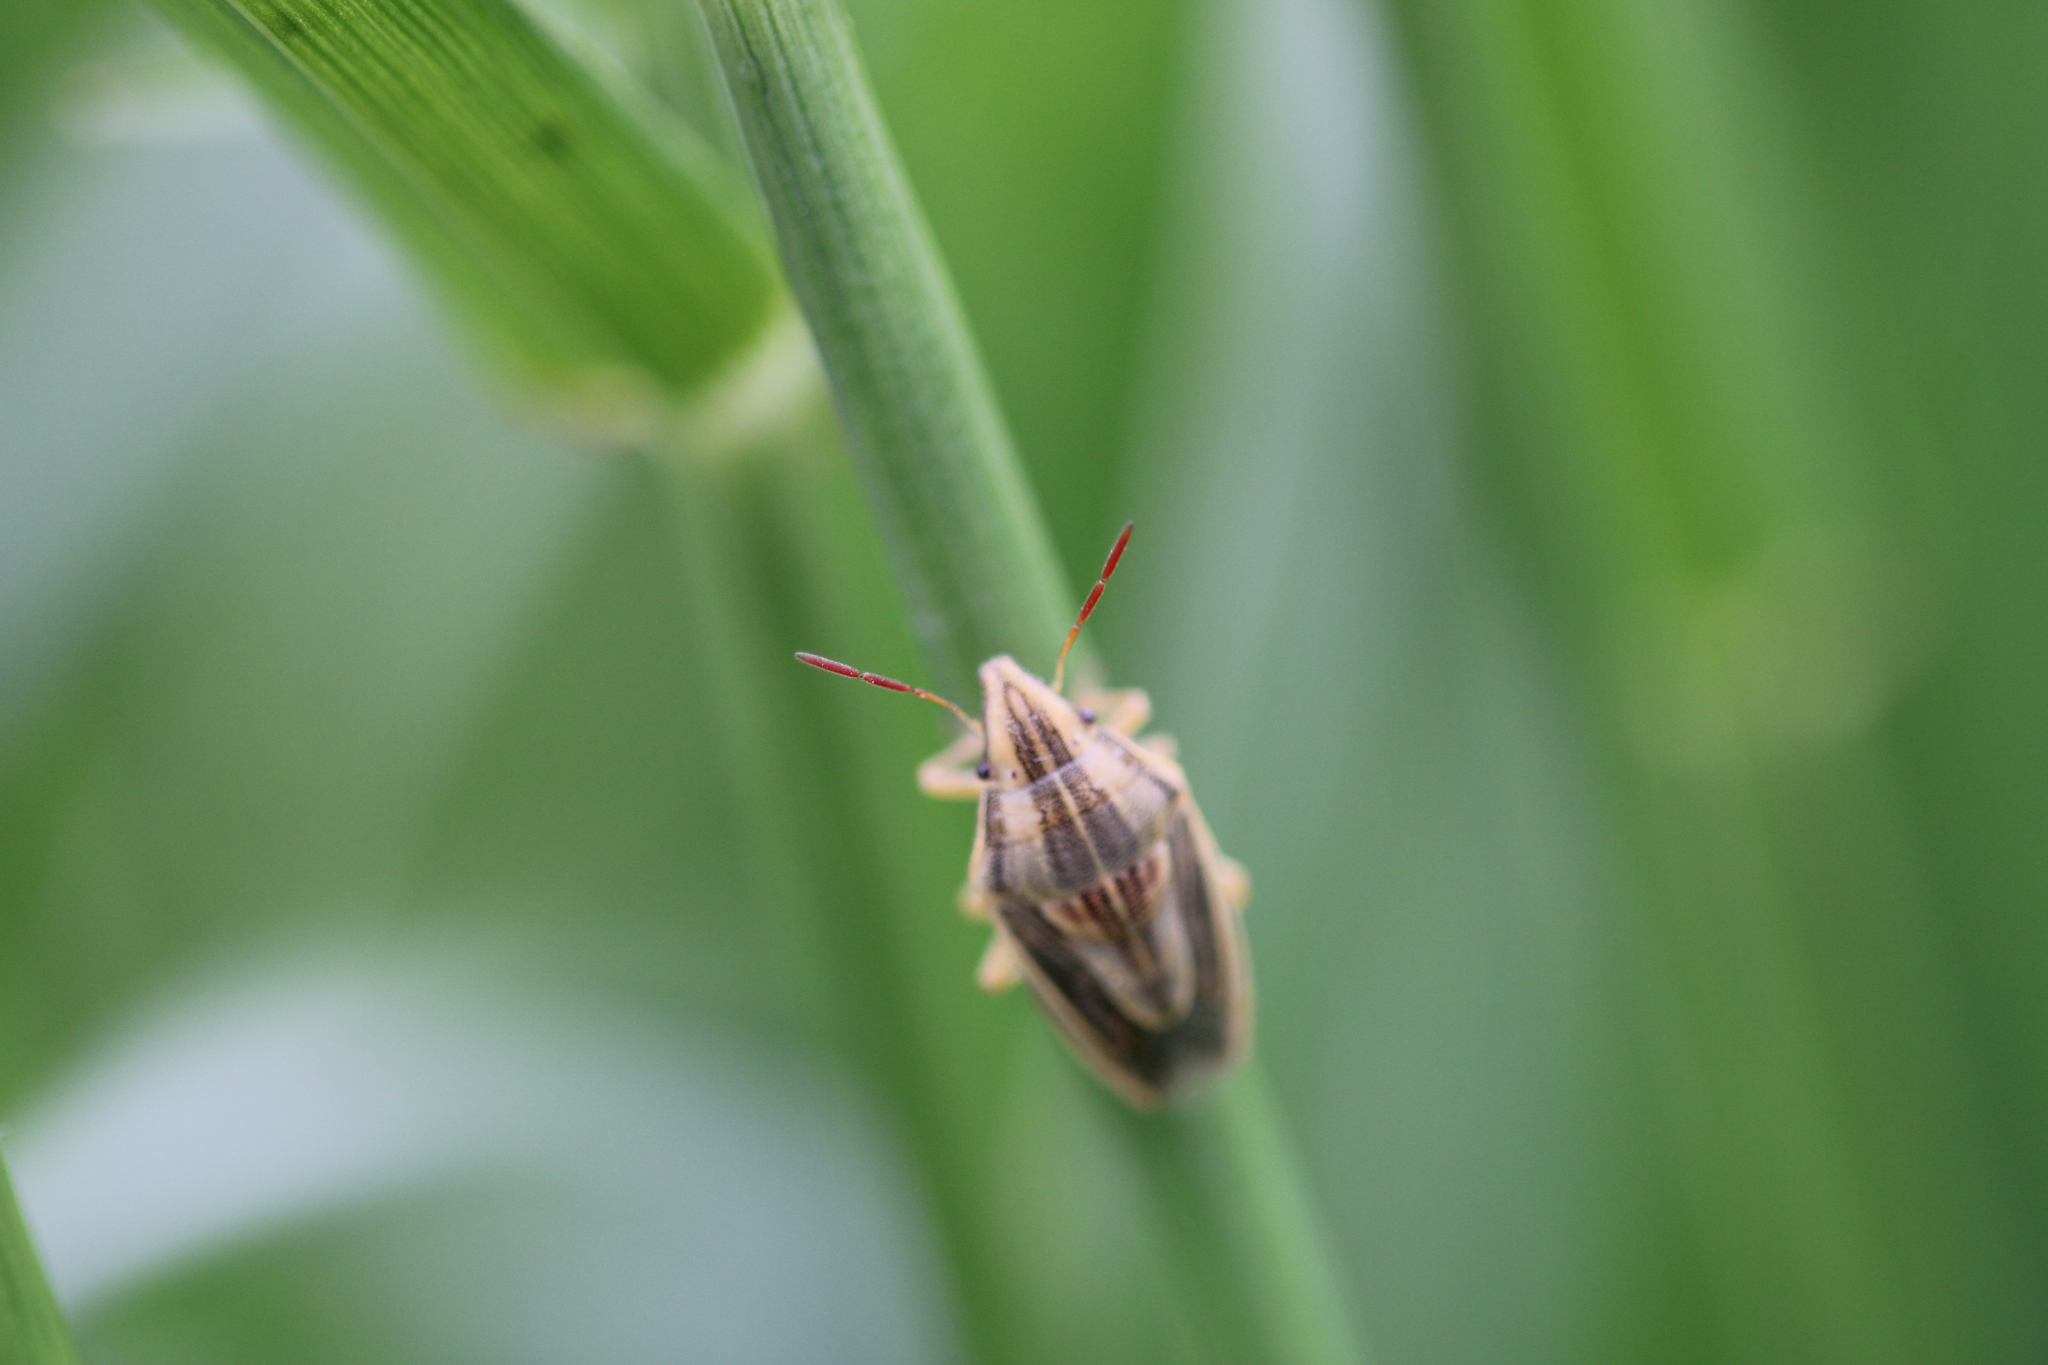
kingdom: Animalia
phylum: Arthropoda
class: Insecta
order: Hemiptera
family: Pentatomidae
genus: Aelia
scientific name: Aelia acuminata
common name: Bishop's mitre
